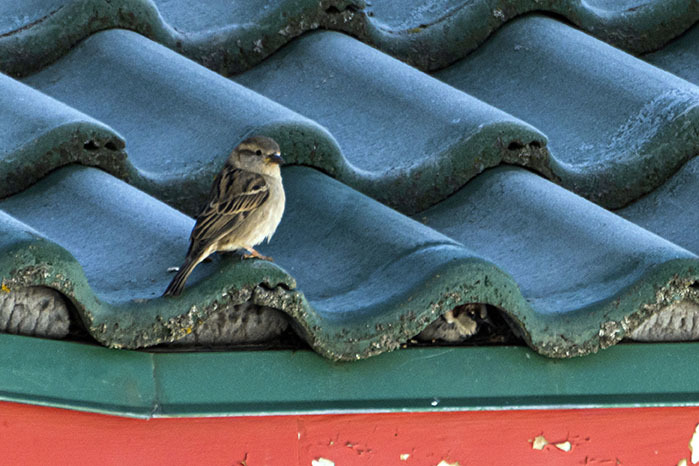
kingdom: Animalia
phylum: Chordata
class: Aves
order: Passeriformes
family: Passeridae
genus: Passer
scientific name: Passer domesticus
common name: House sparrow
